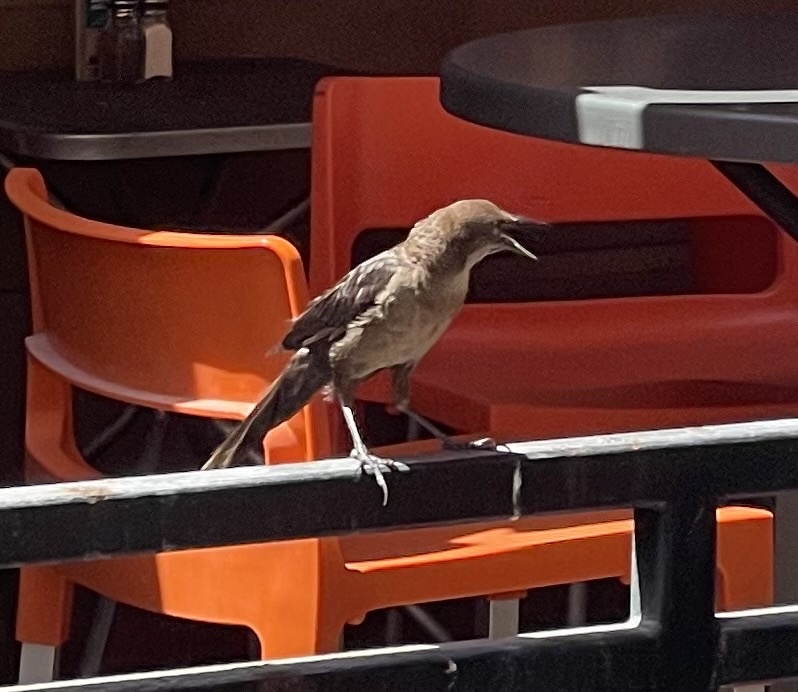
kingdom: Animalia
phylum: Chordata
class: Aves
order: Passeriformes
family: Icteridae
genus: Quiscalus
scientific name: Quiscalus mexicanus
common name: Great-tailed grackle
